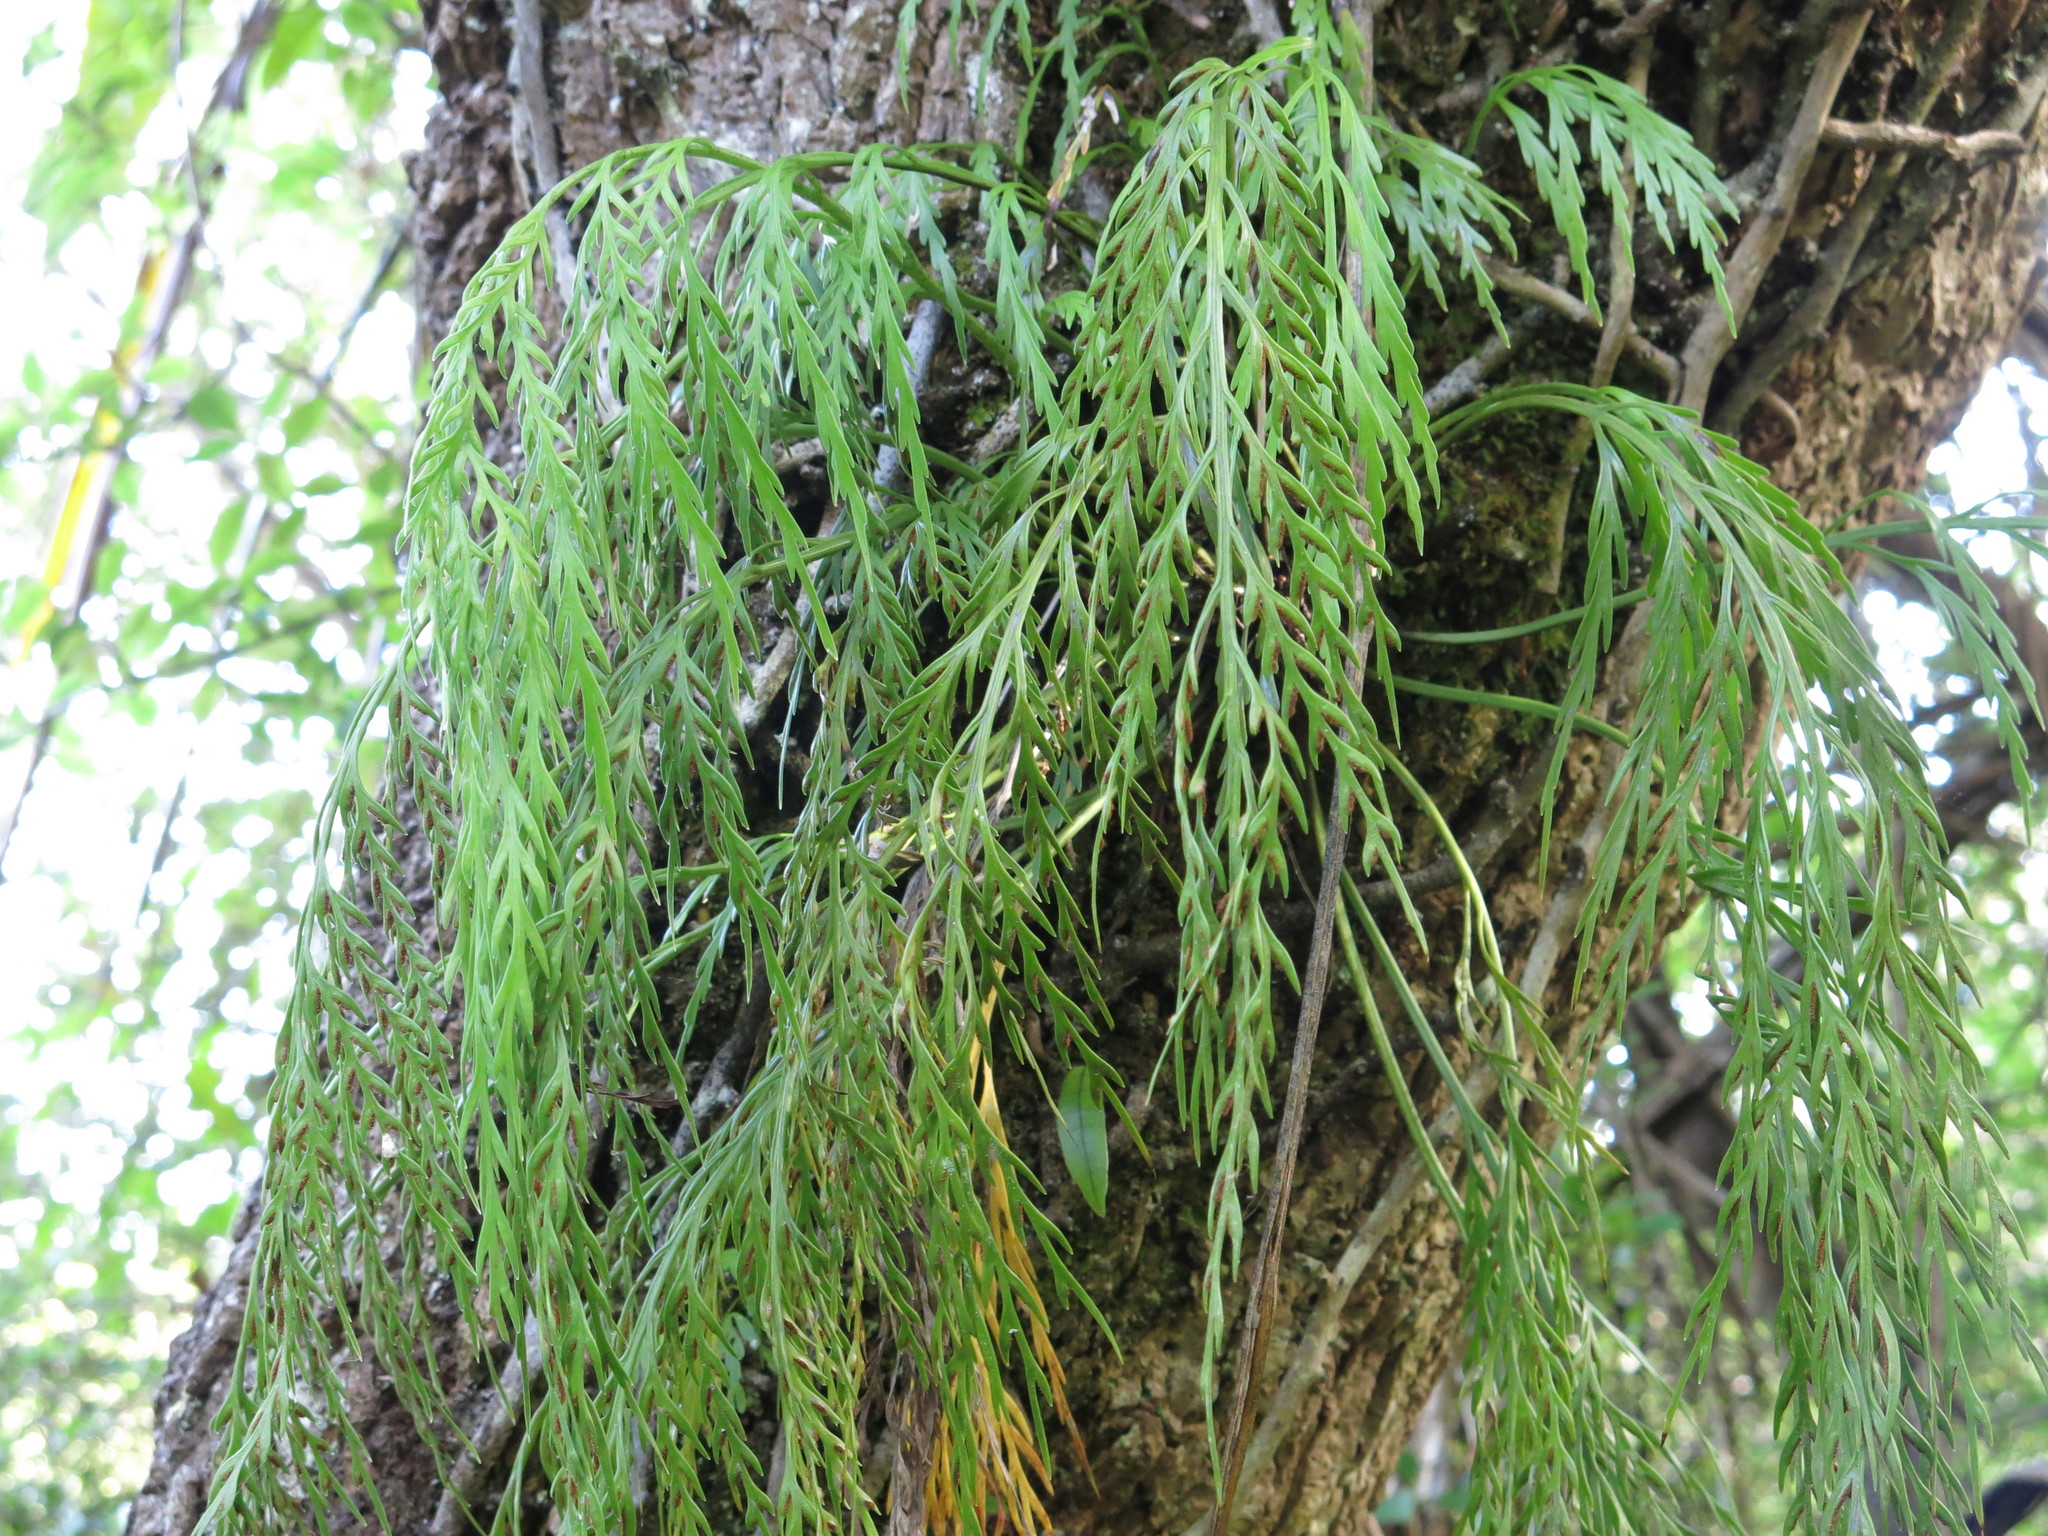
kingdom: Plantae
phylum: Tracheophyta
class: Polypodiopsida
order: Polypodiales
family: Aspleniaceae
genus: Asplenium
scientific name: Asplenium flaccidum
